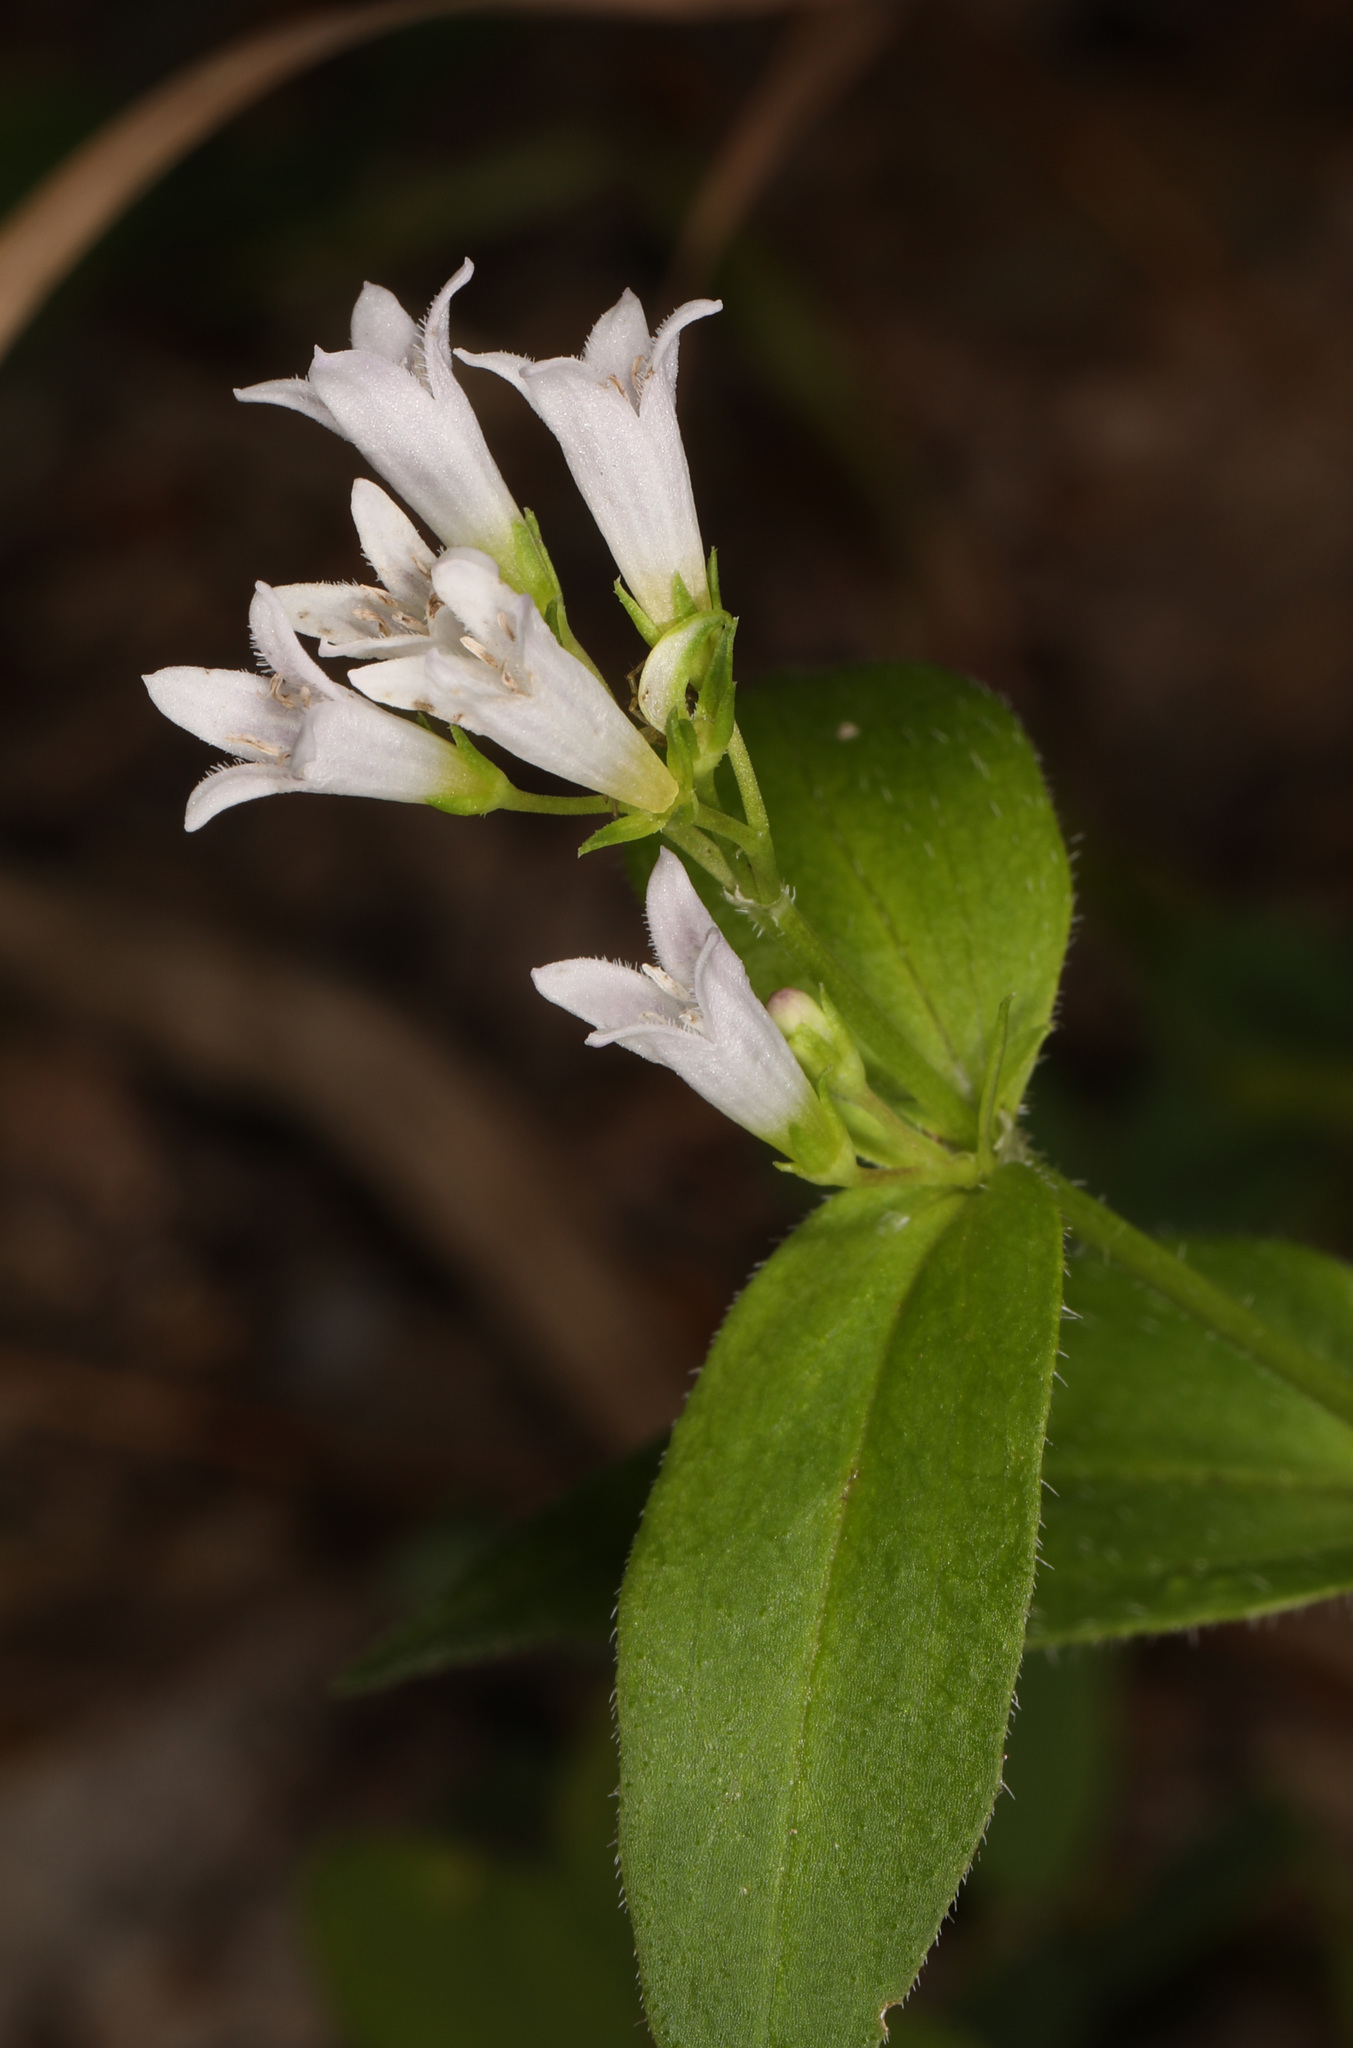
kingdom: Plantae
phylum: Tracheophyta
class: Magnoliopsida
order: Gentianales
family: Rubiaceae
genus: Houstonia
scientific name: Houstonia purpurea
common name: Summer bluet
